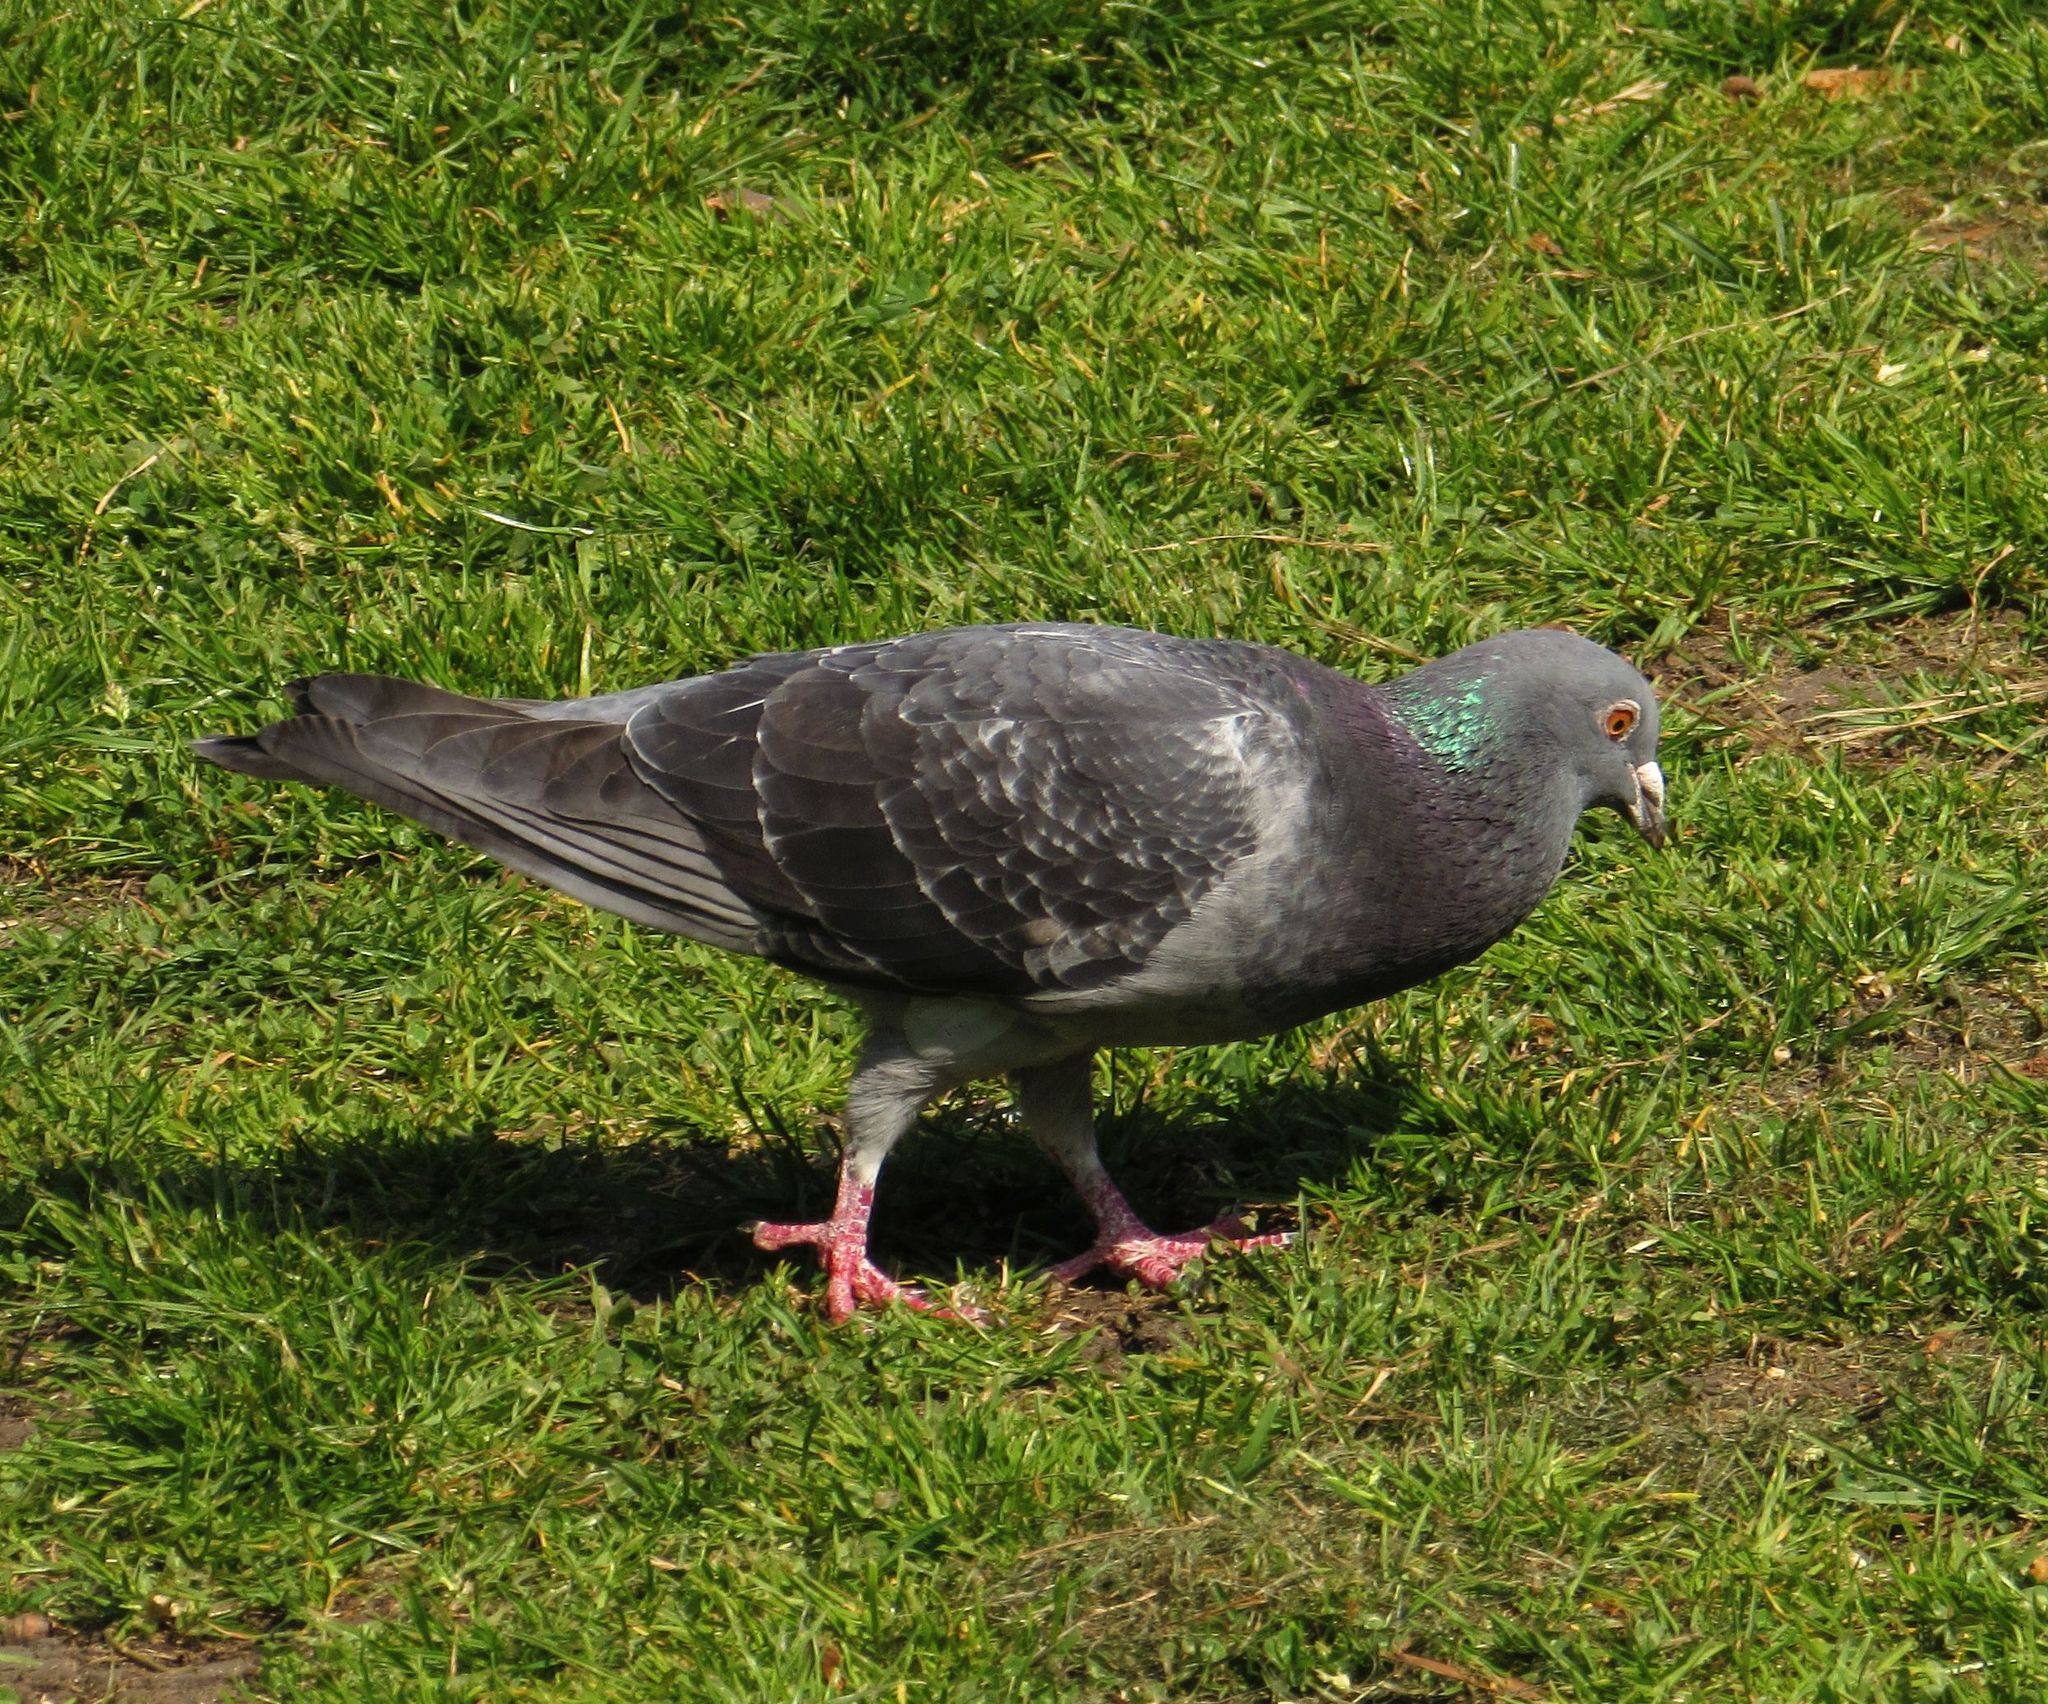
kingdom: Animalia
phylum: Chordata
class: Aves
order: Columbiformes
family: Columbidae
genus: Columba
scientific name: Columba livia
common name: Rock pigeon
